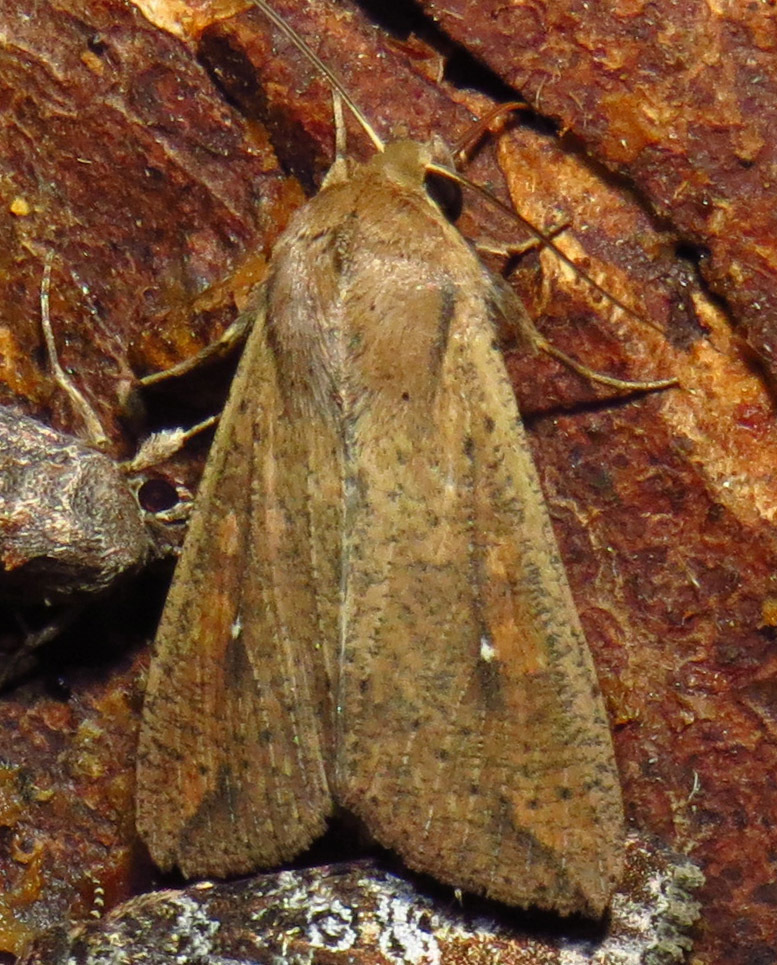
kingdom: Animalia
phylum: Arthropoda
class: Insecta
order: Lepidoptera
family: Noctuidae
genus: Mythimna
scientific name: Mythimna unipuncta
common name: White-speck
